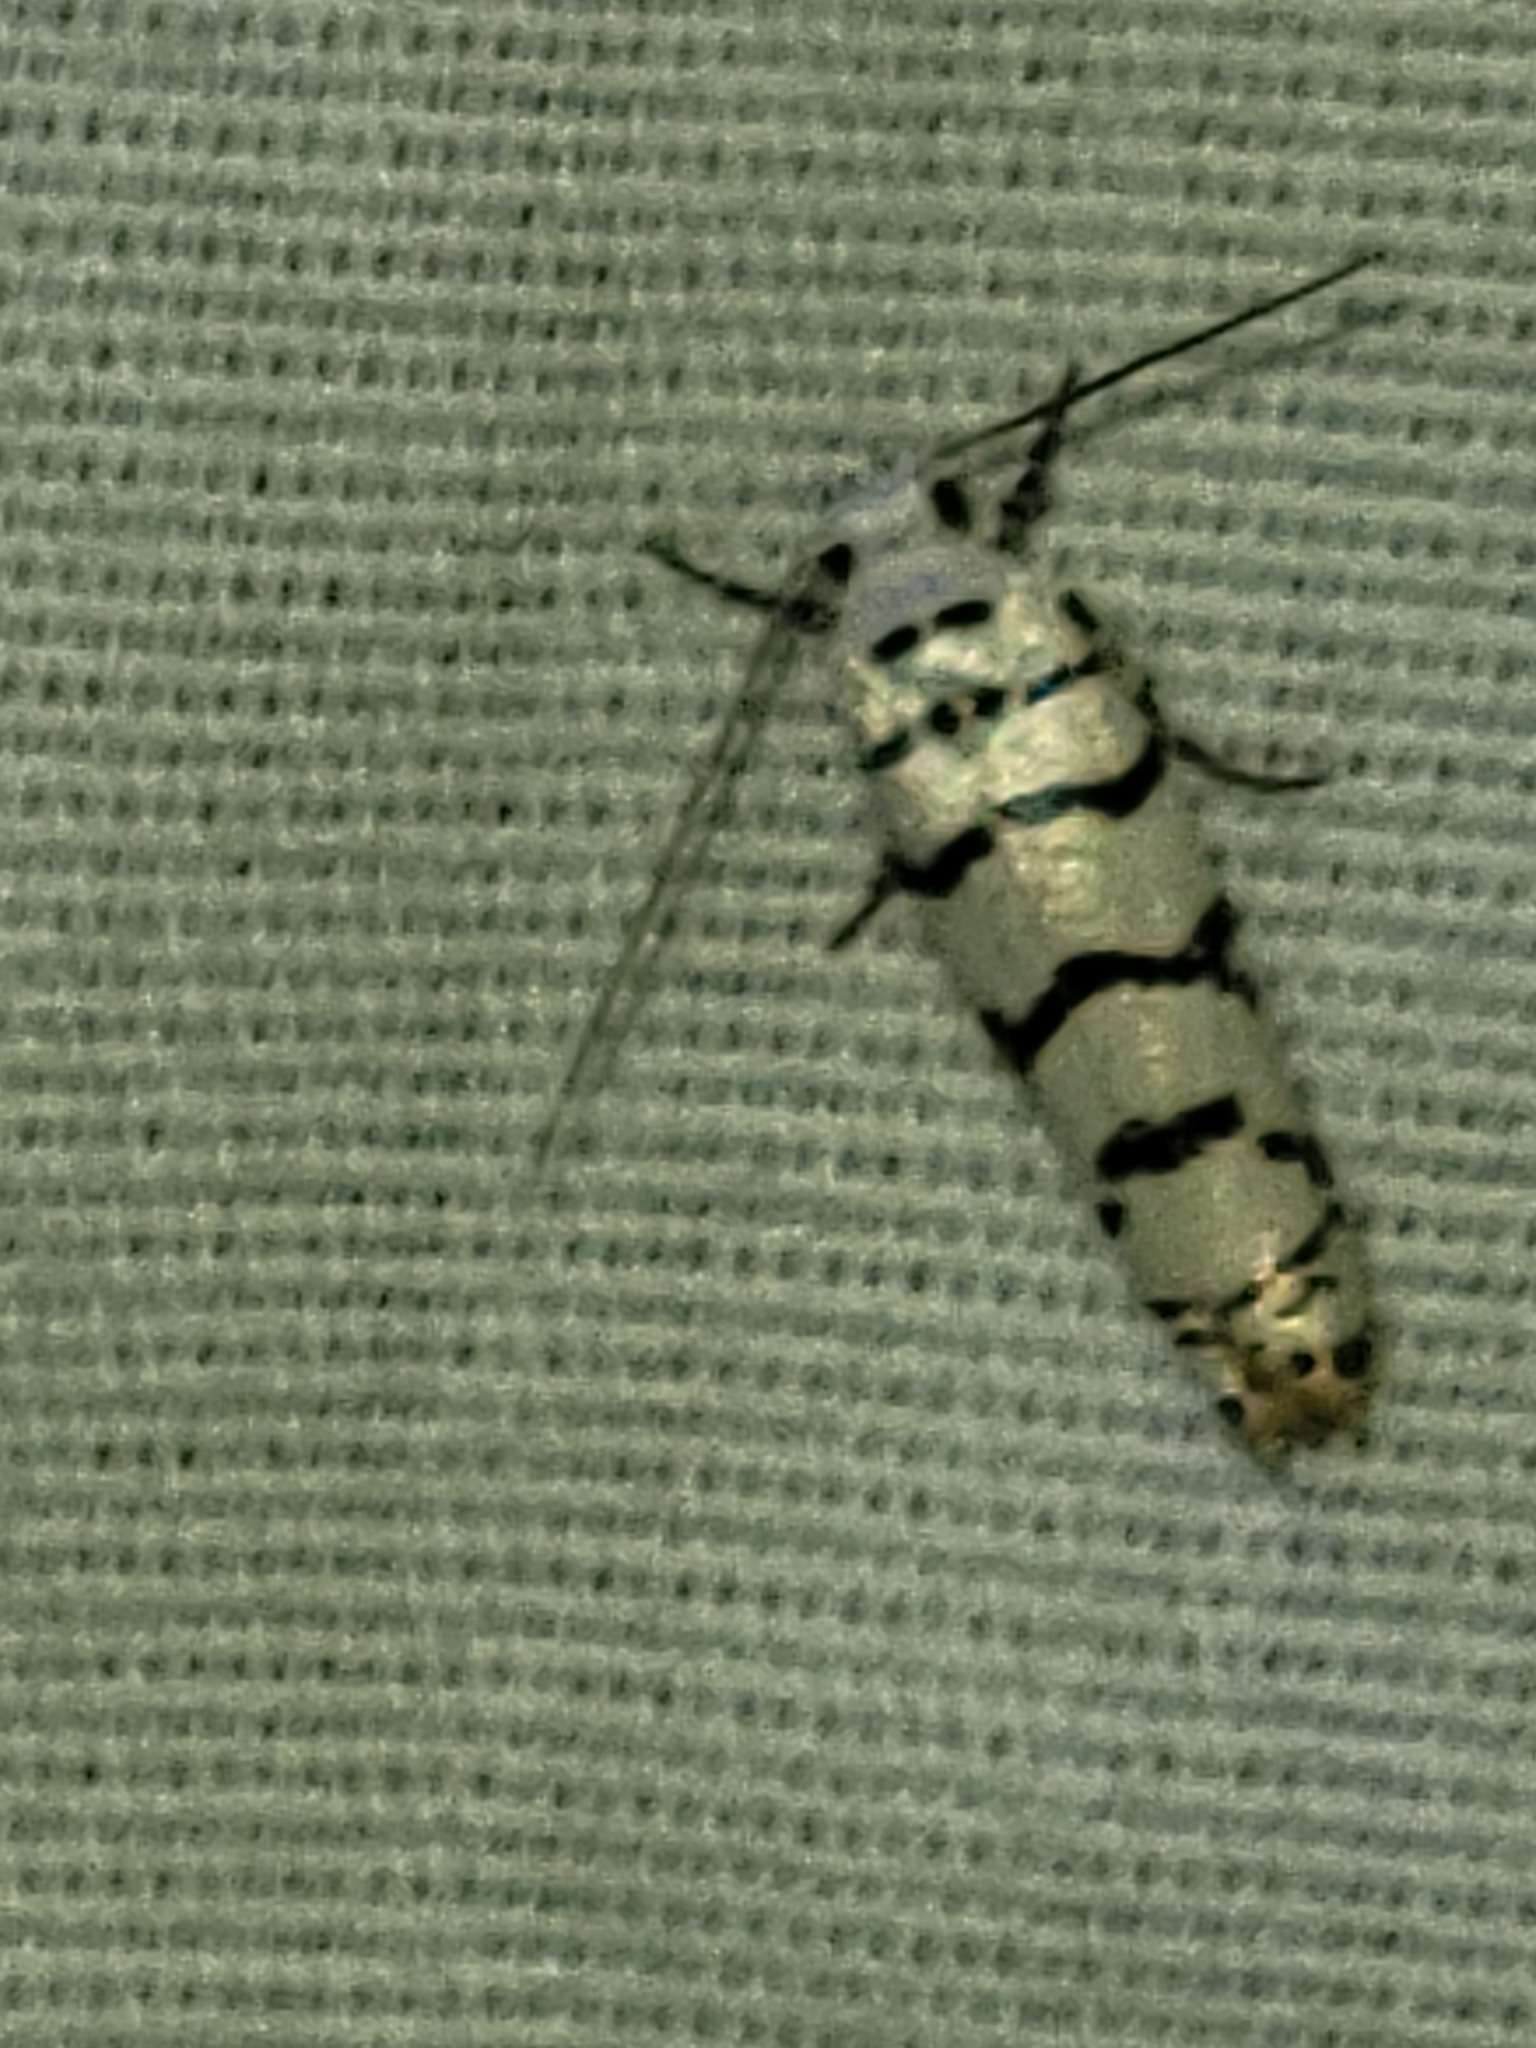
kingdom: Animalia
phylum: Arthropoda
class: Insecta
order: Lepidoptera
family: Ethmiidae
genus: Ethmia
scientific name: Ethmia delliella
